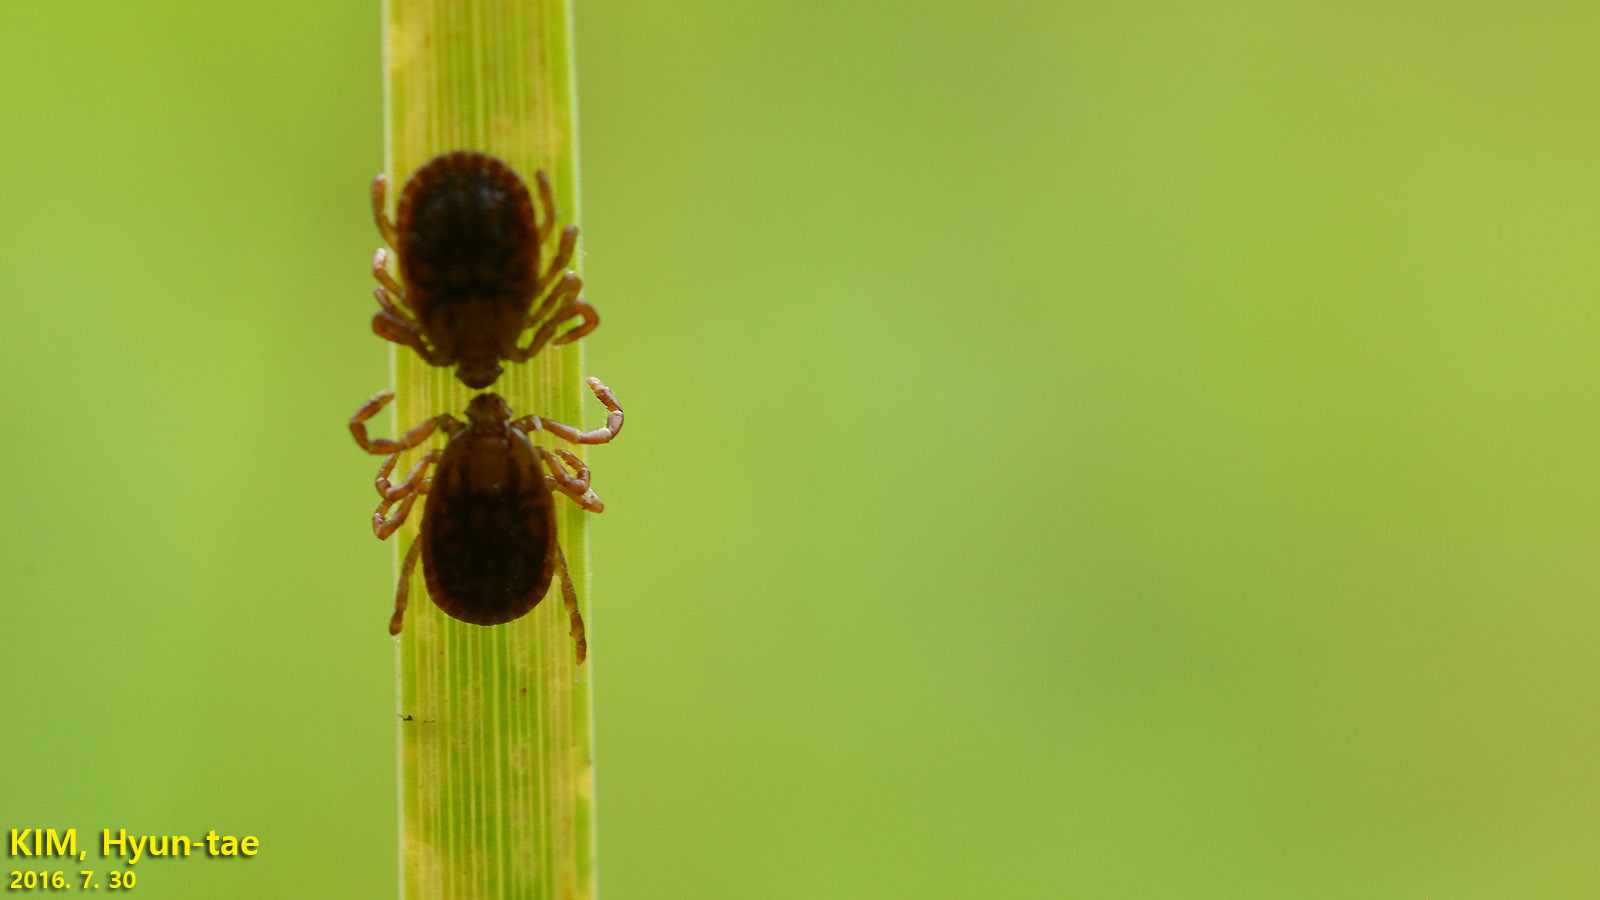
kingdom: Animalia
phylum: Arthropoda
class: Arachnida
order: Ixodida
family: Ixodidae
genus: Haemaphysalis
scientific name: Haemaphysalis longicornis
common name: Bush tick
